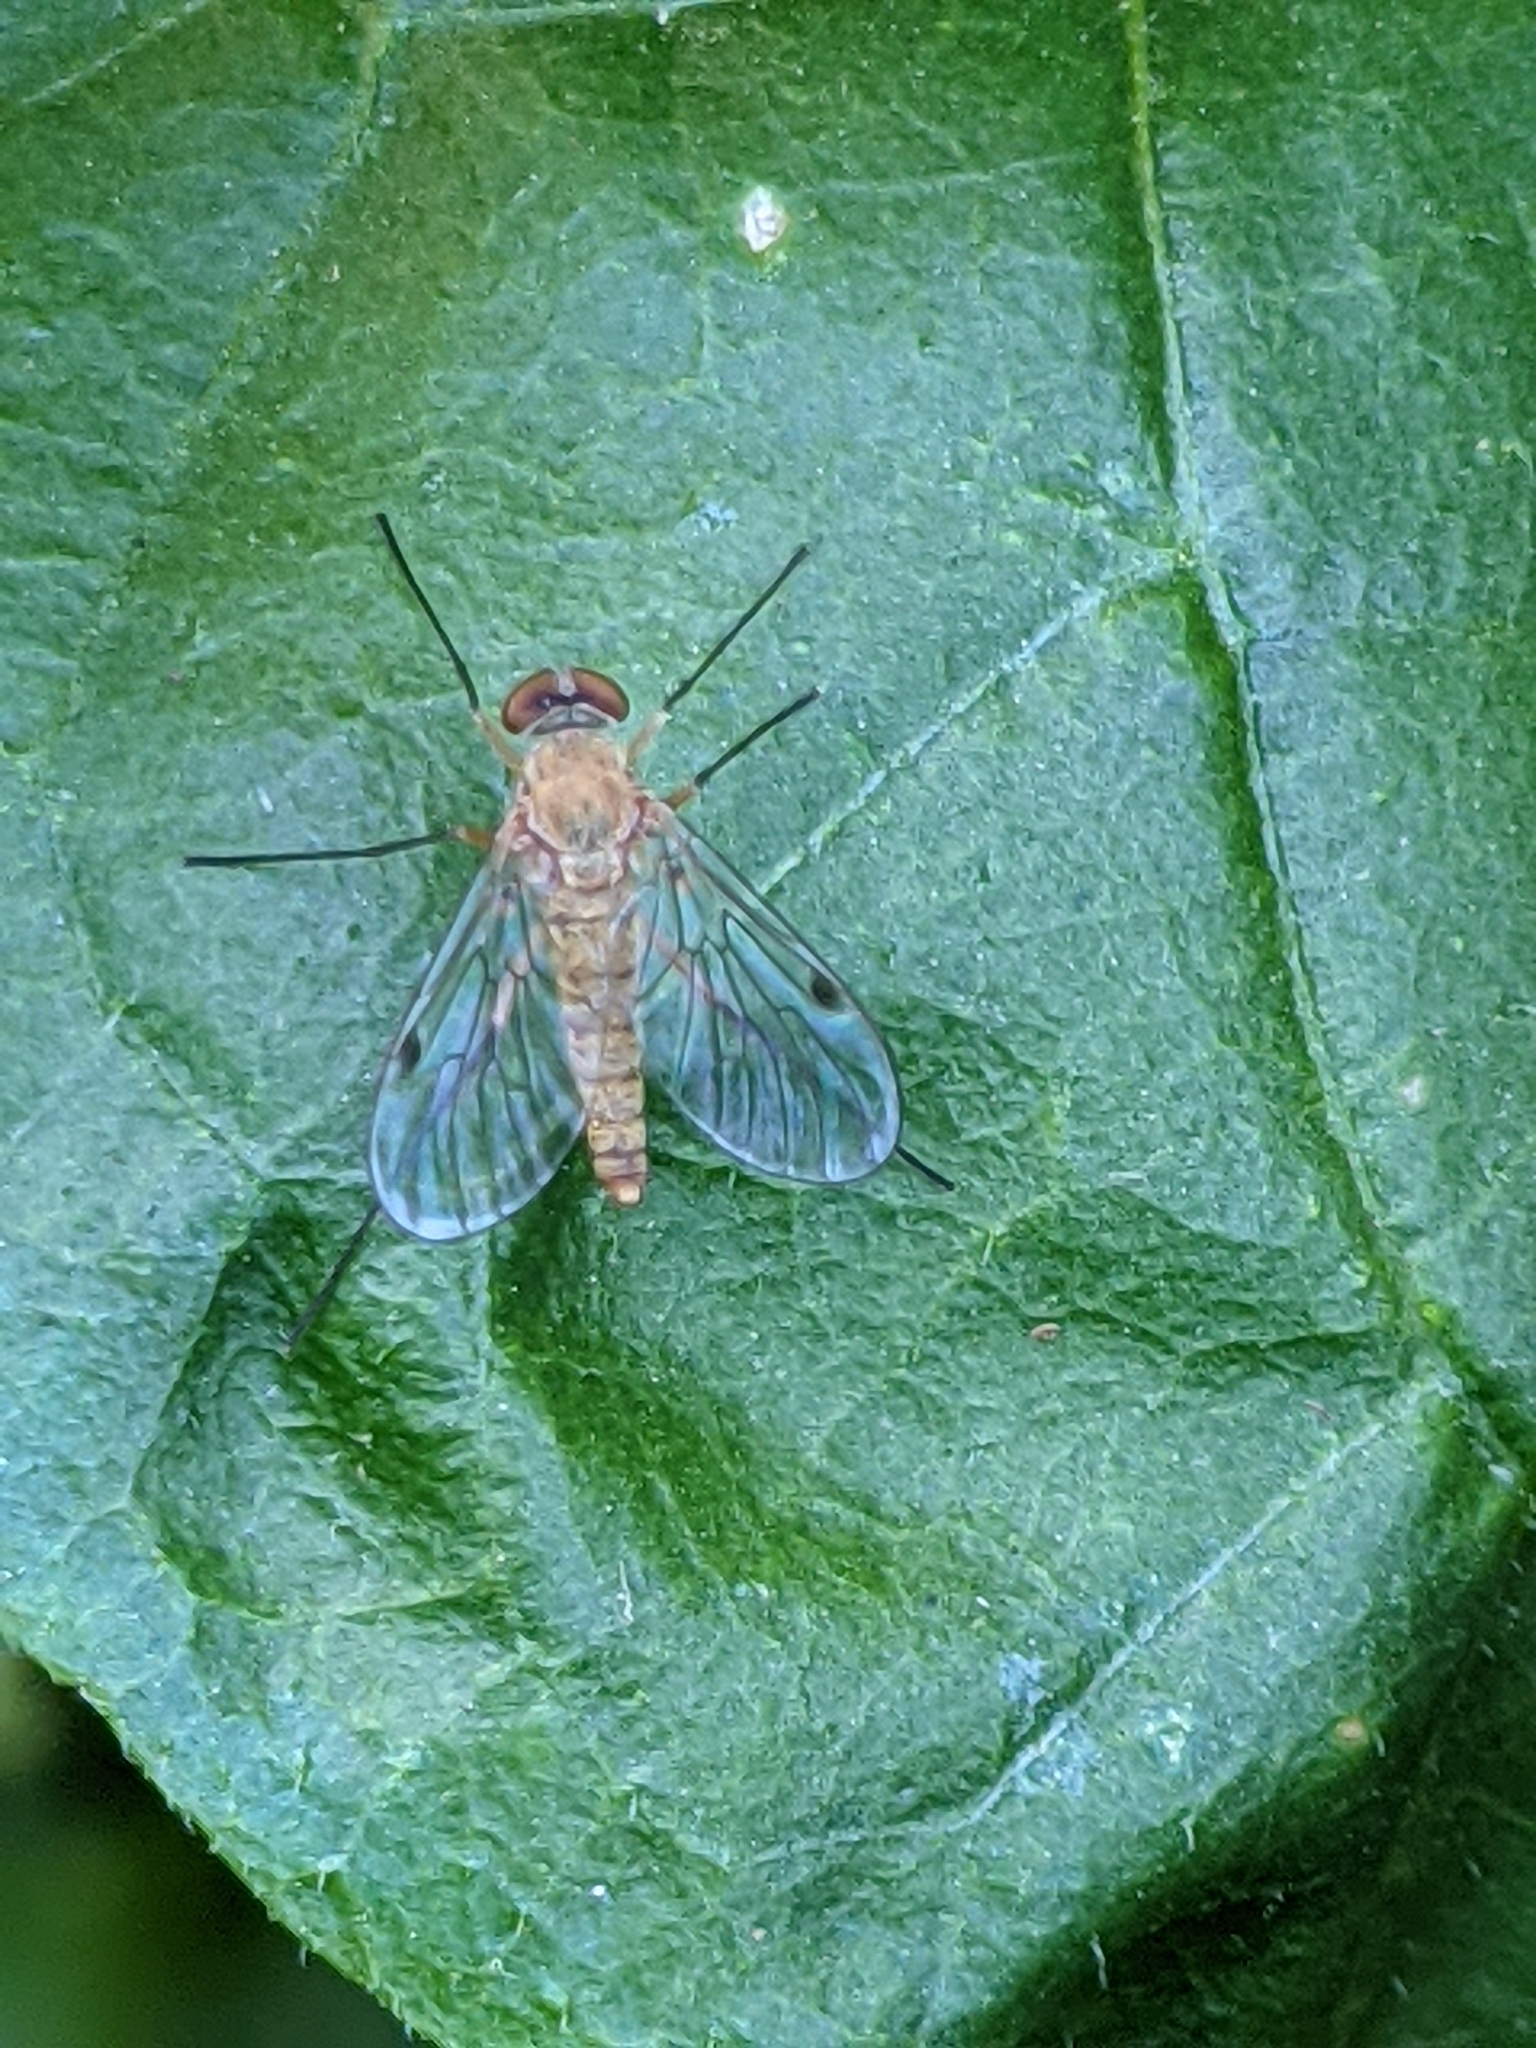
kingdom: Animalia
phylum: Arthropoda
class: Insecta
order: Diptera
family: Rhagionidae
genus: Chrysopilus
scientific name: Chrysopilus rotundipennis
